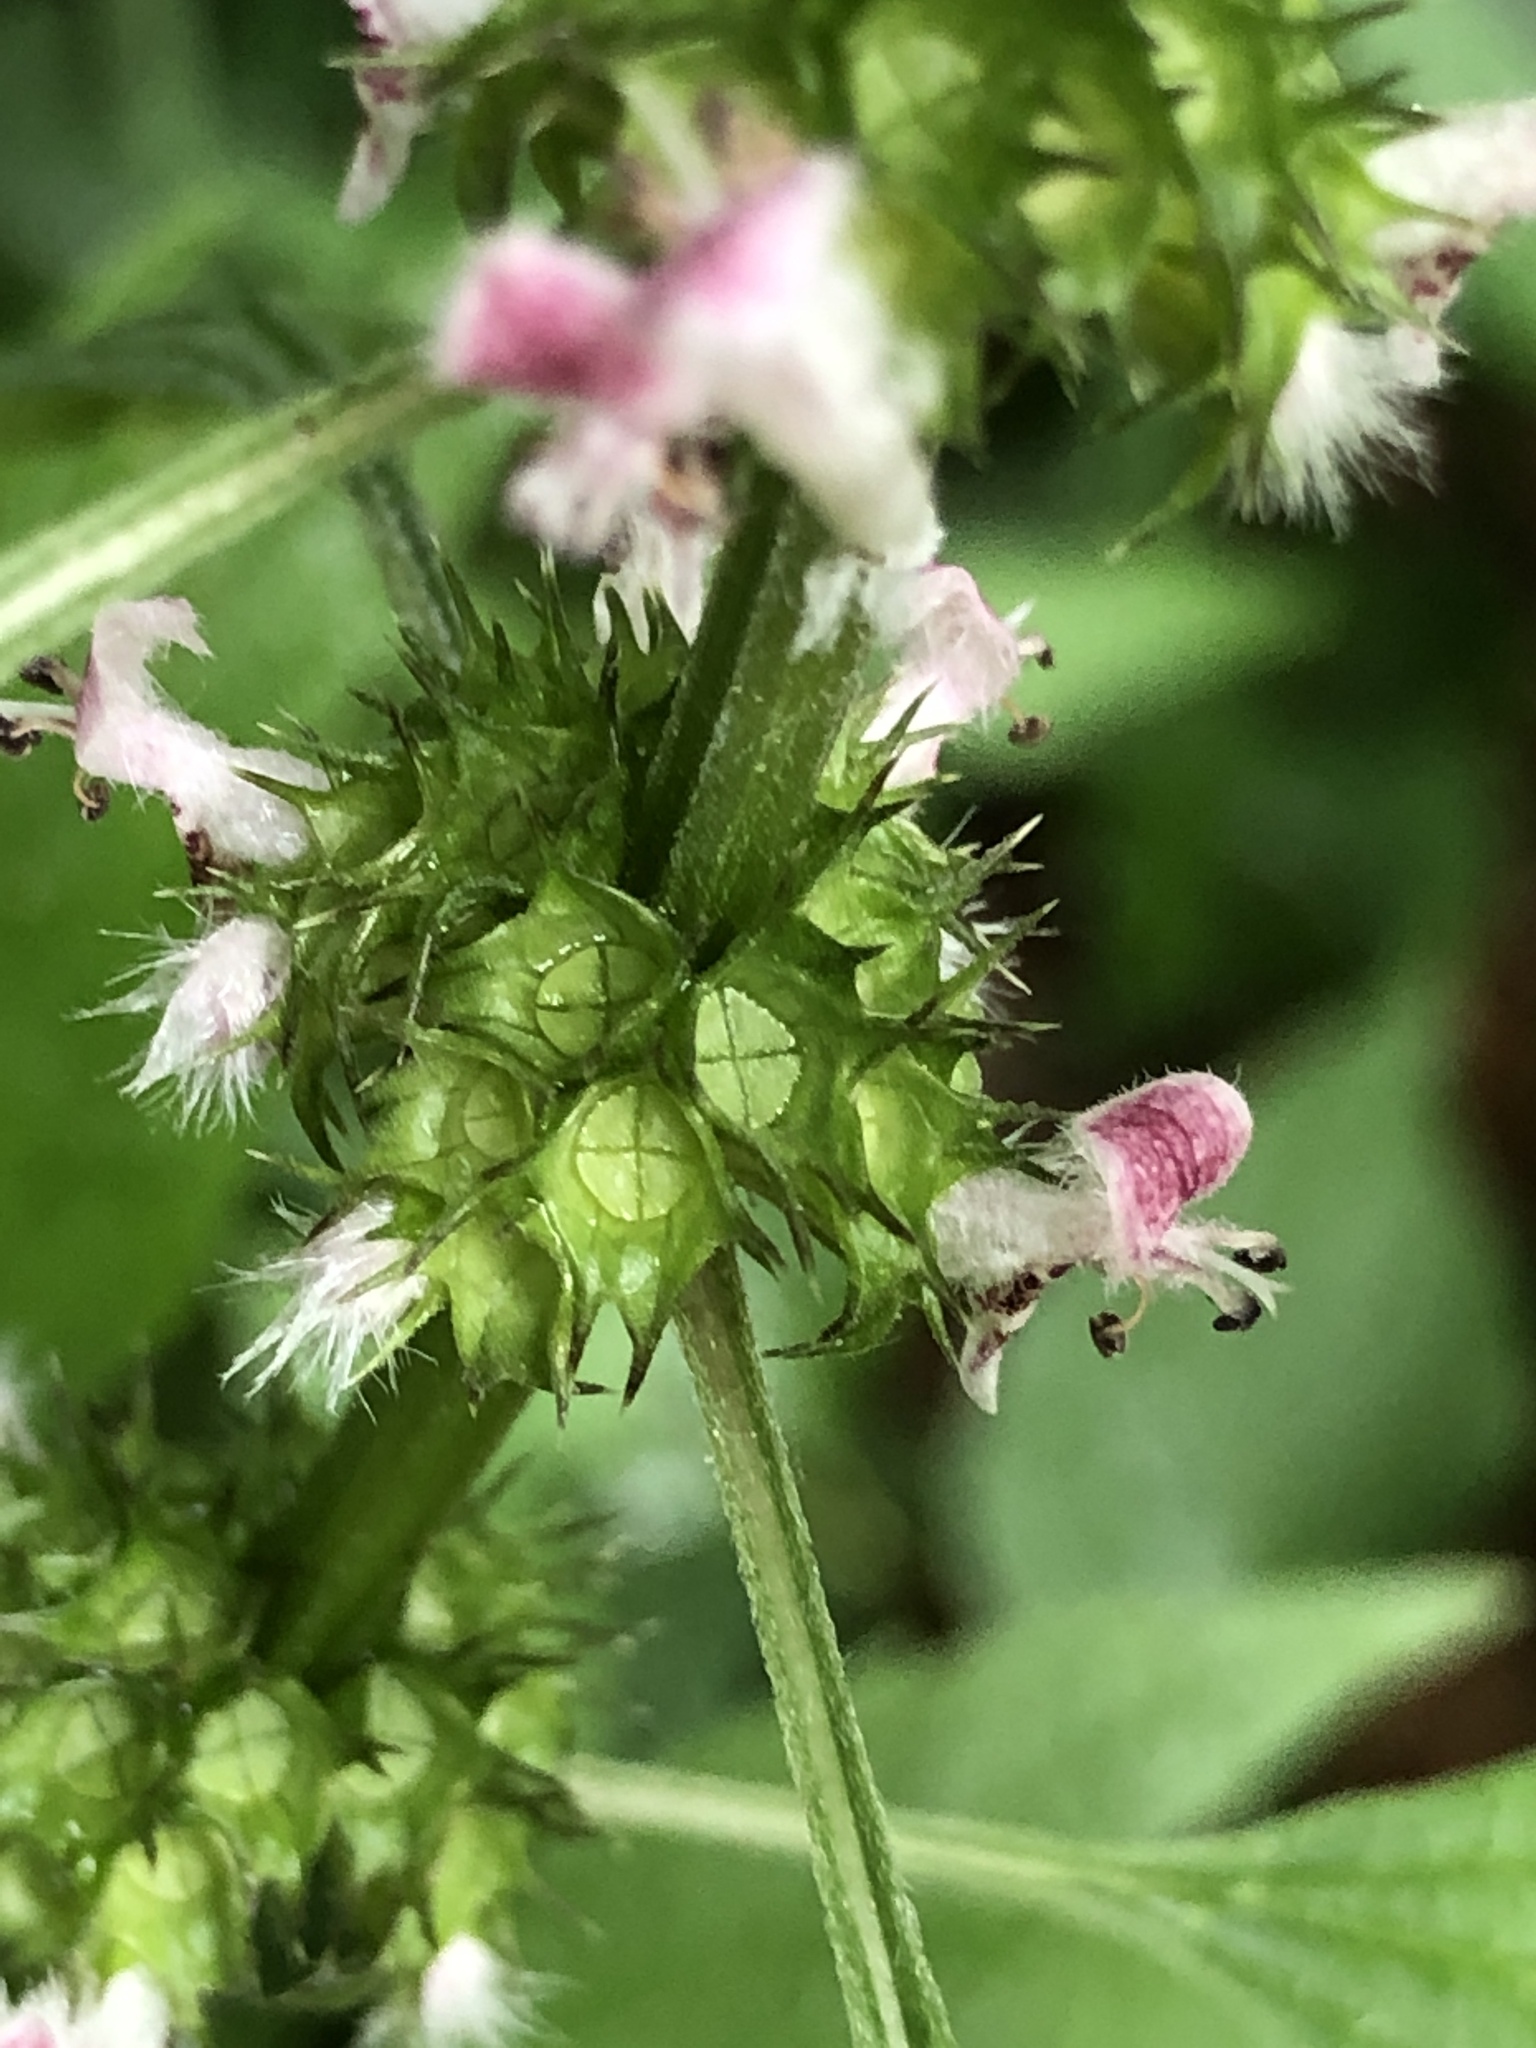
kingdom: Plantae
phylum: Tracheophyta
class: Magnoliopsida
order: Lamiales
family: Lamiaceae
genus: Leonurus
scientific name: Leonurus cardiaca
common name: Motherwort
